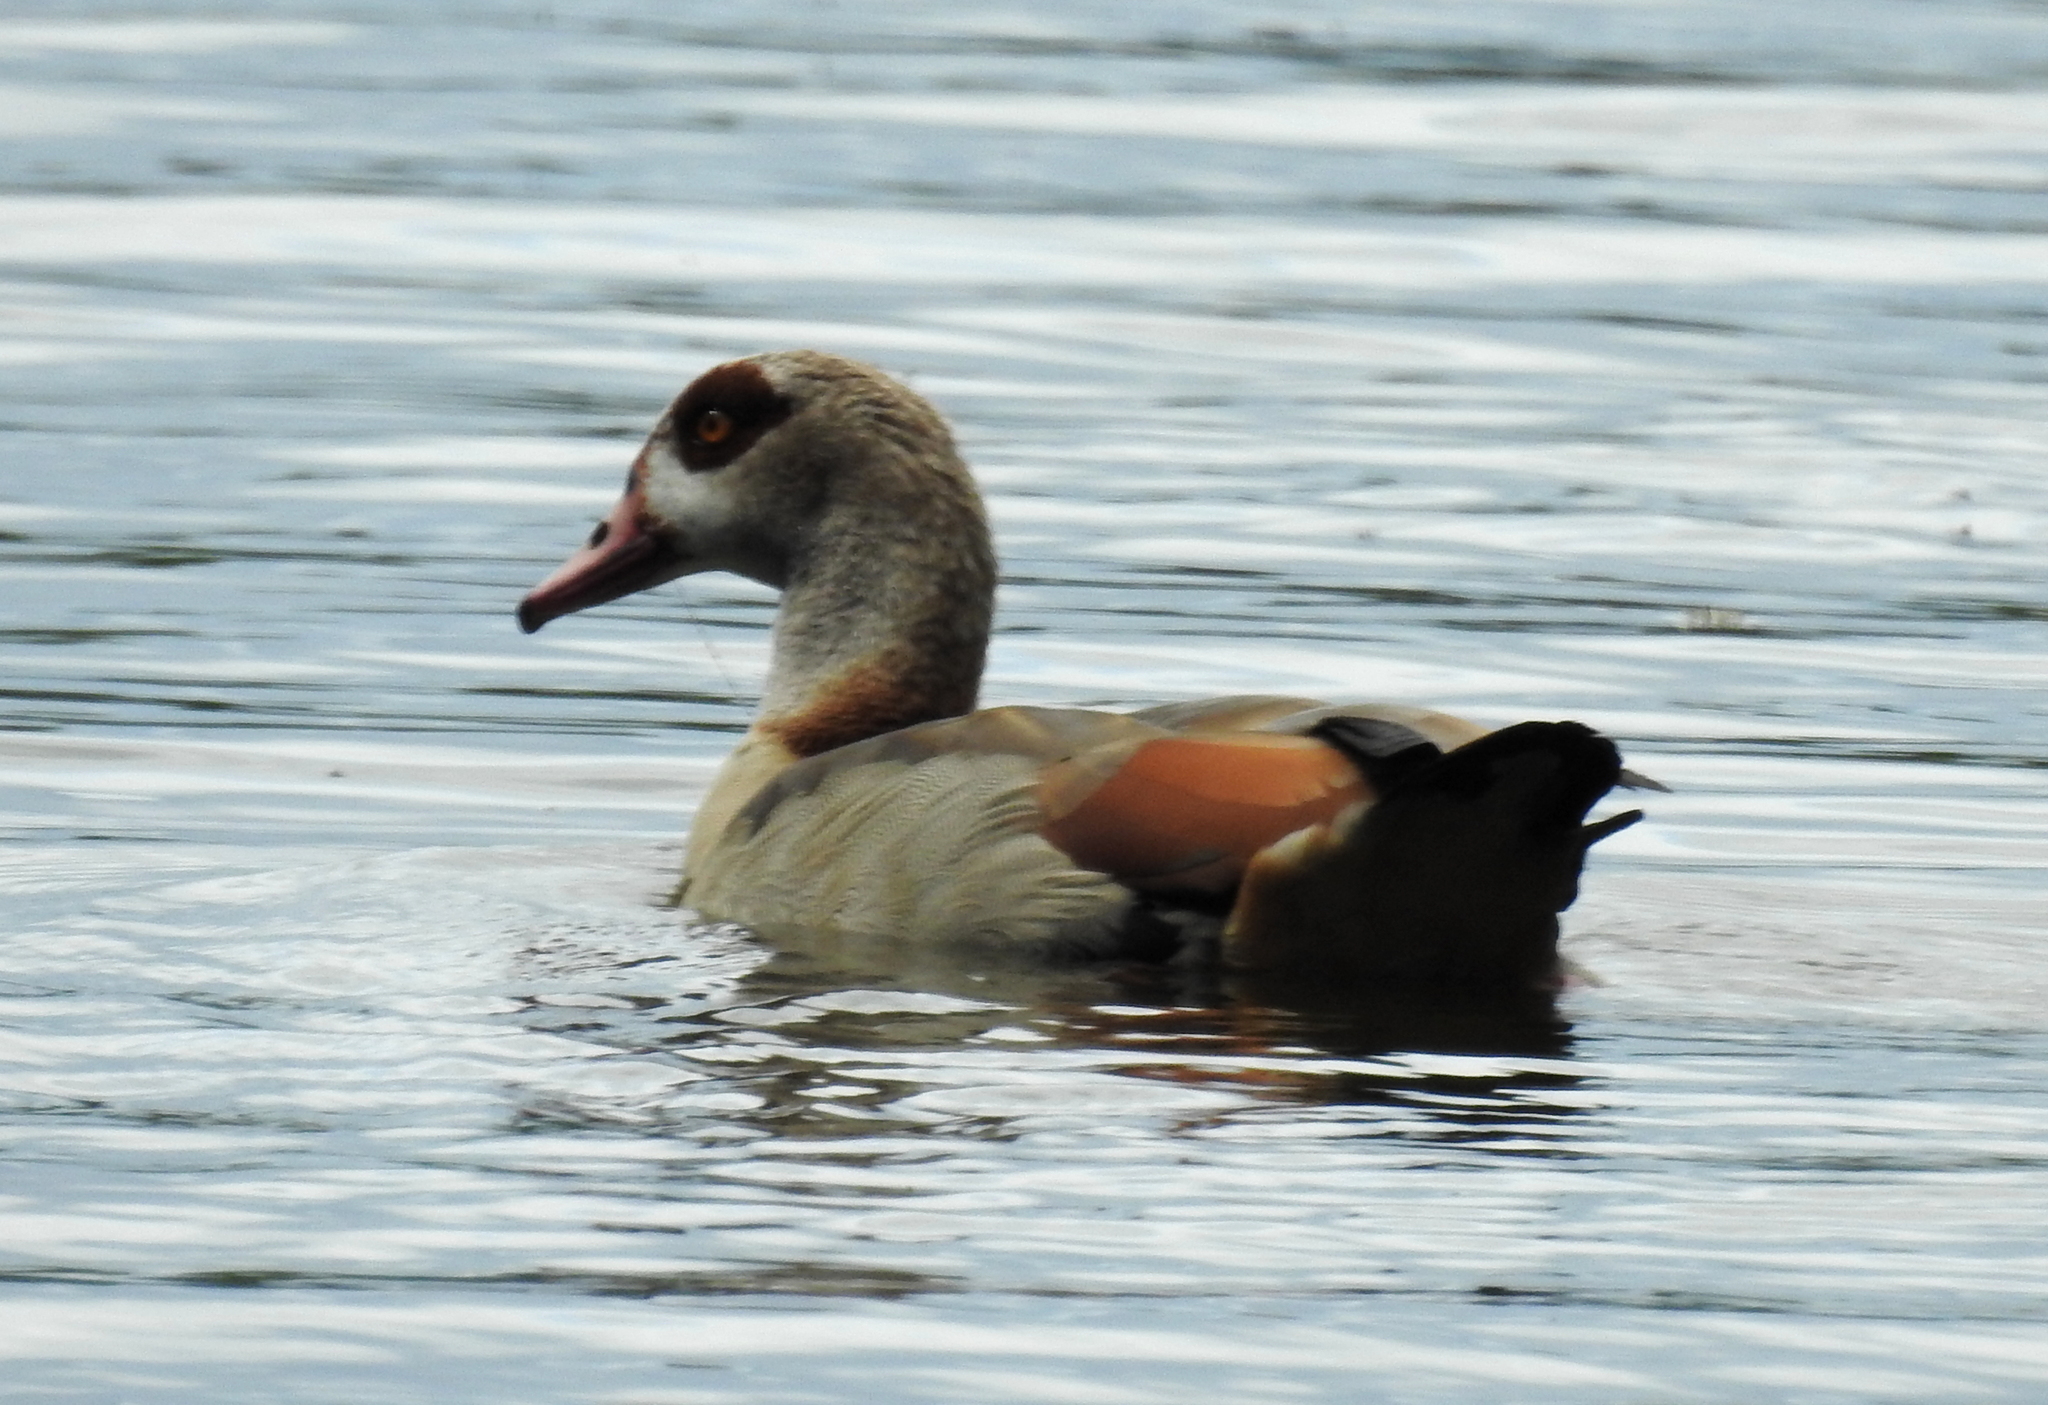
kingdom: Animalia
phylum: Chordata
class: Aves
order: Anseriformes
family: Anatidae
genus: Alopochen
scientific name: Alopochen aegyptiaca
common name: Egyptian goose
